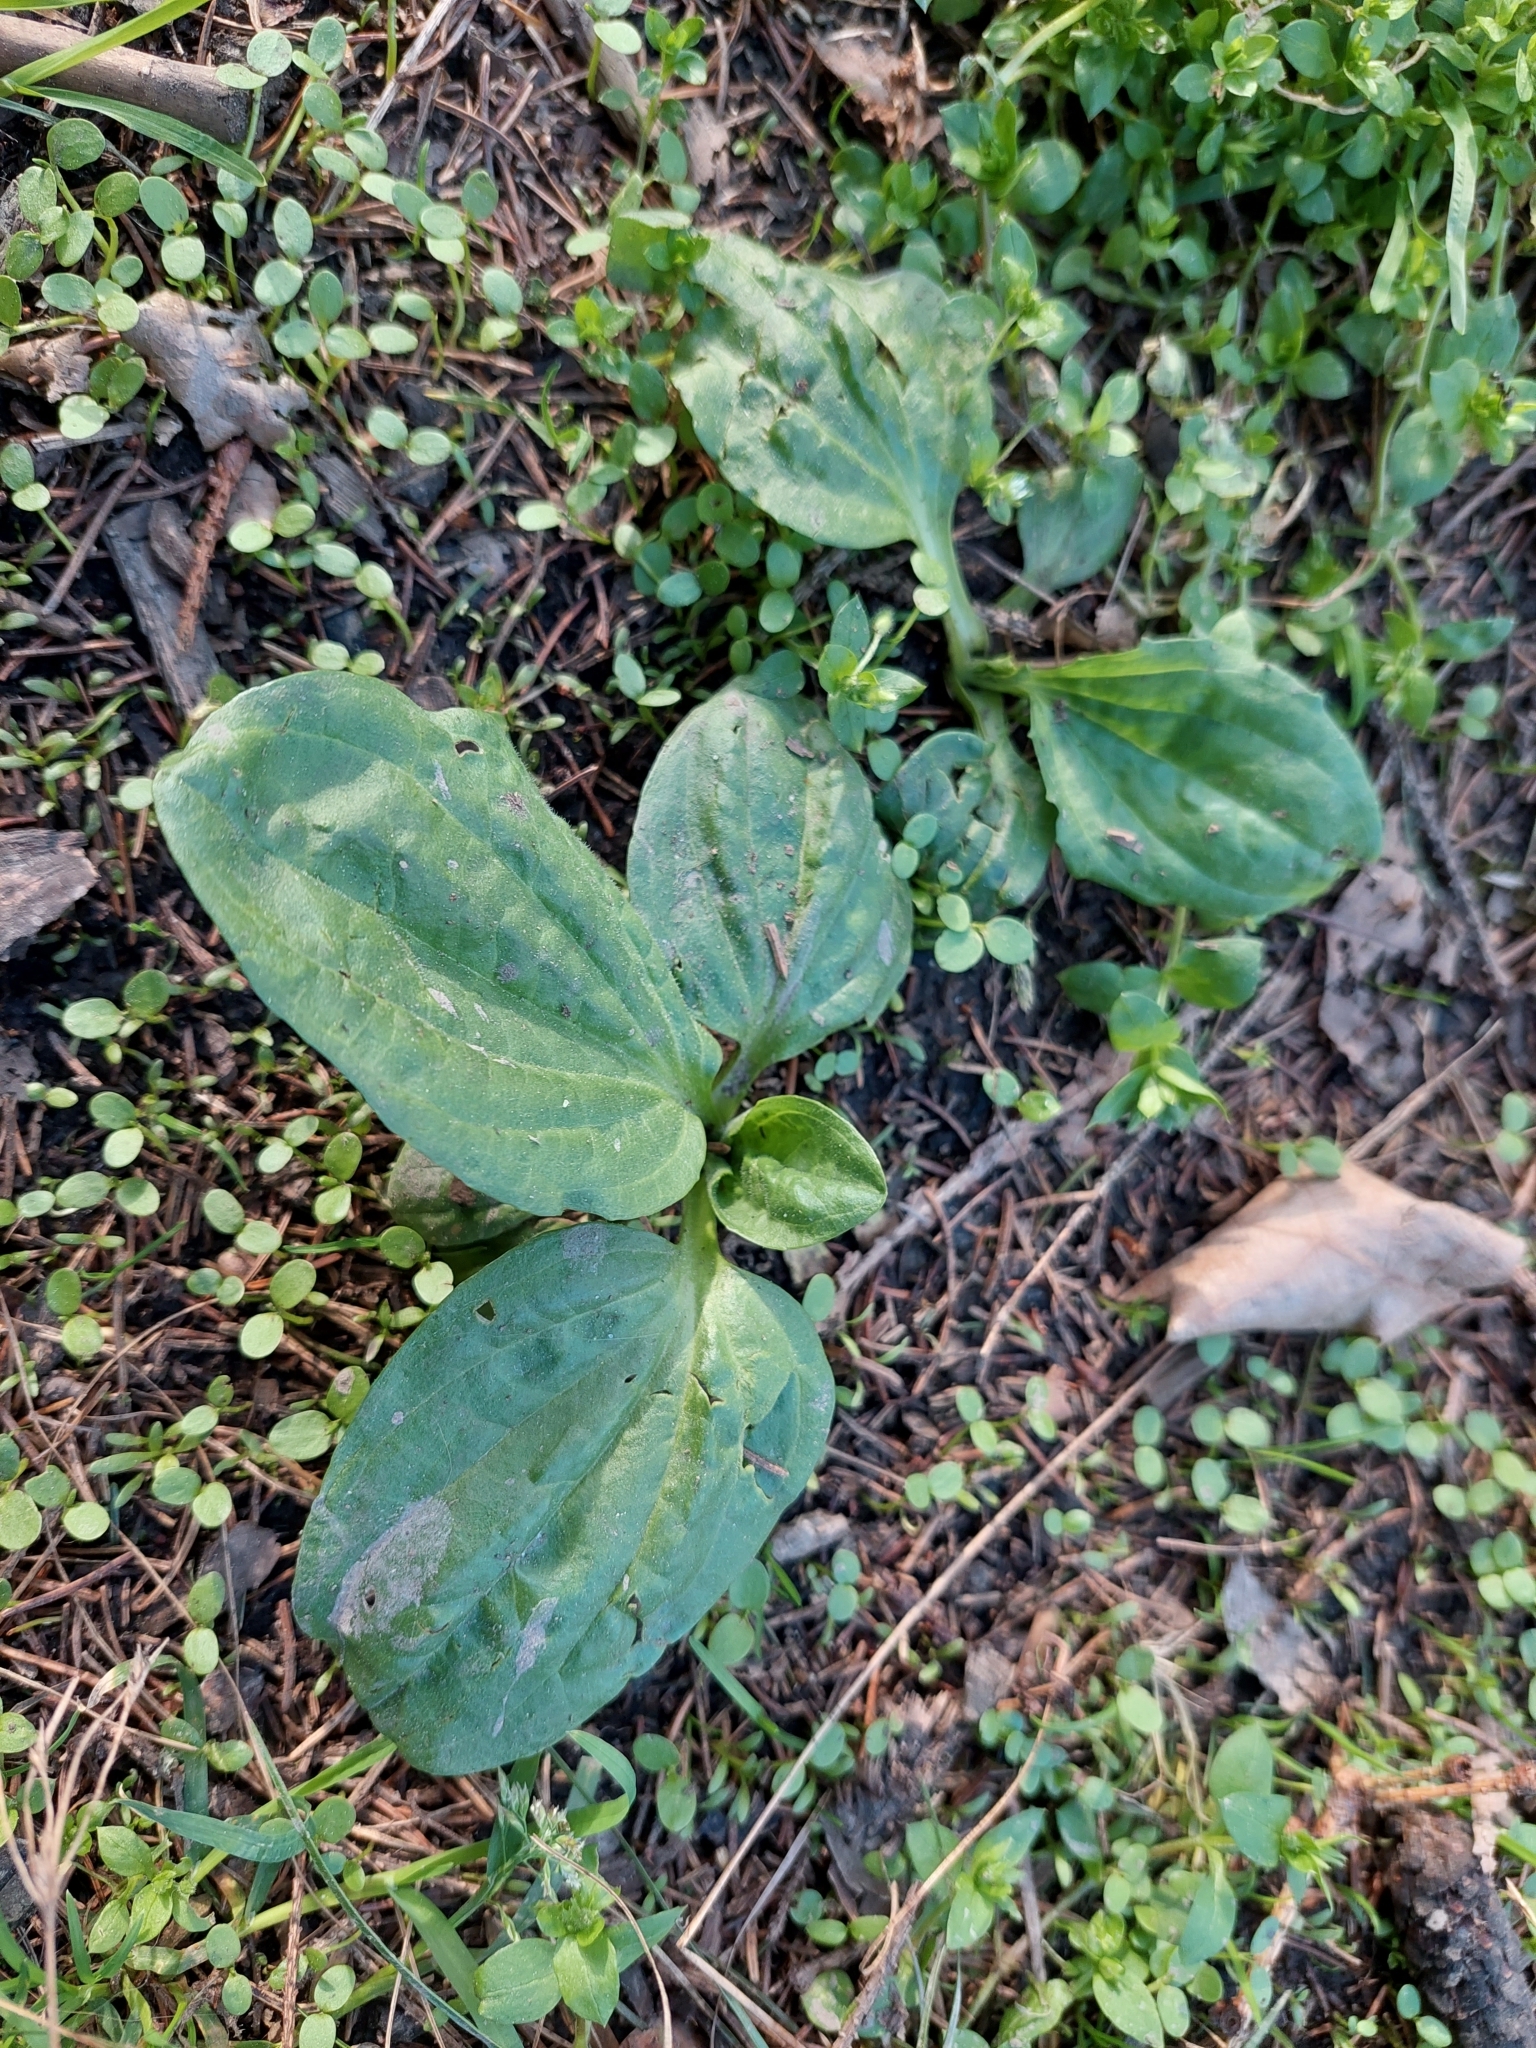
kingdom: Plantae
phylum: Tracheophyta
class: Magnoliopsida
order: Lamiales
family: Plantaginaceae
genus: Plantago
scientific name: Plantago major
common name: Common plantain
